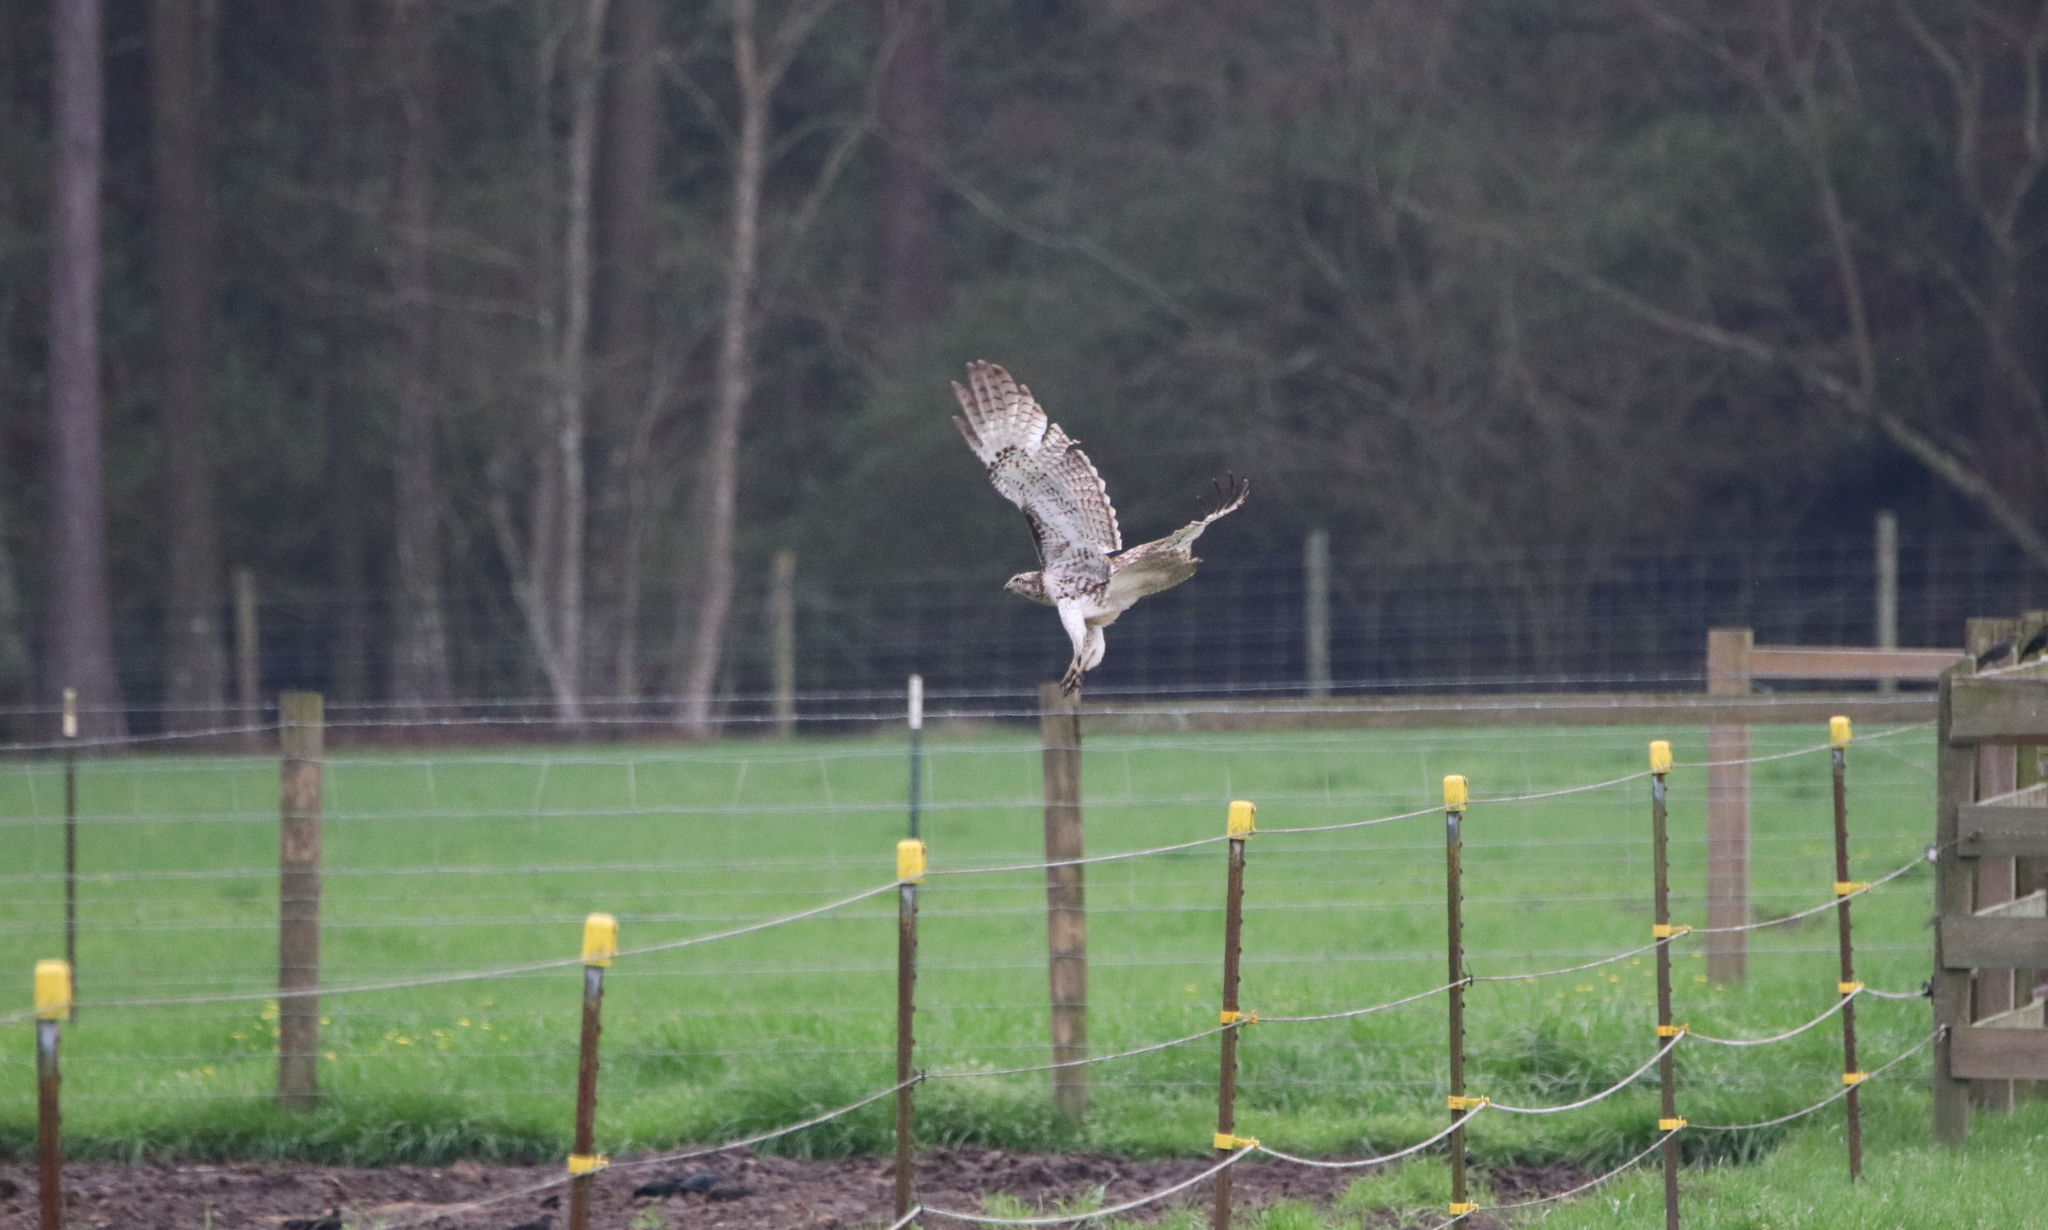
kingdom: Animalia
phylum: Chordata
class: Aves
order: Accipitriformes
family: Accipitridae
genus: Buteo
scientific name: Buteo jamaicensis
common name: Red-tailed hawk
